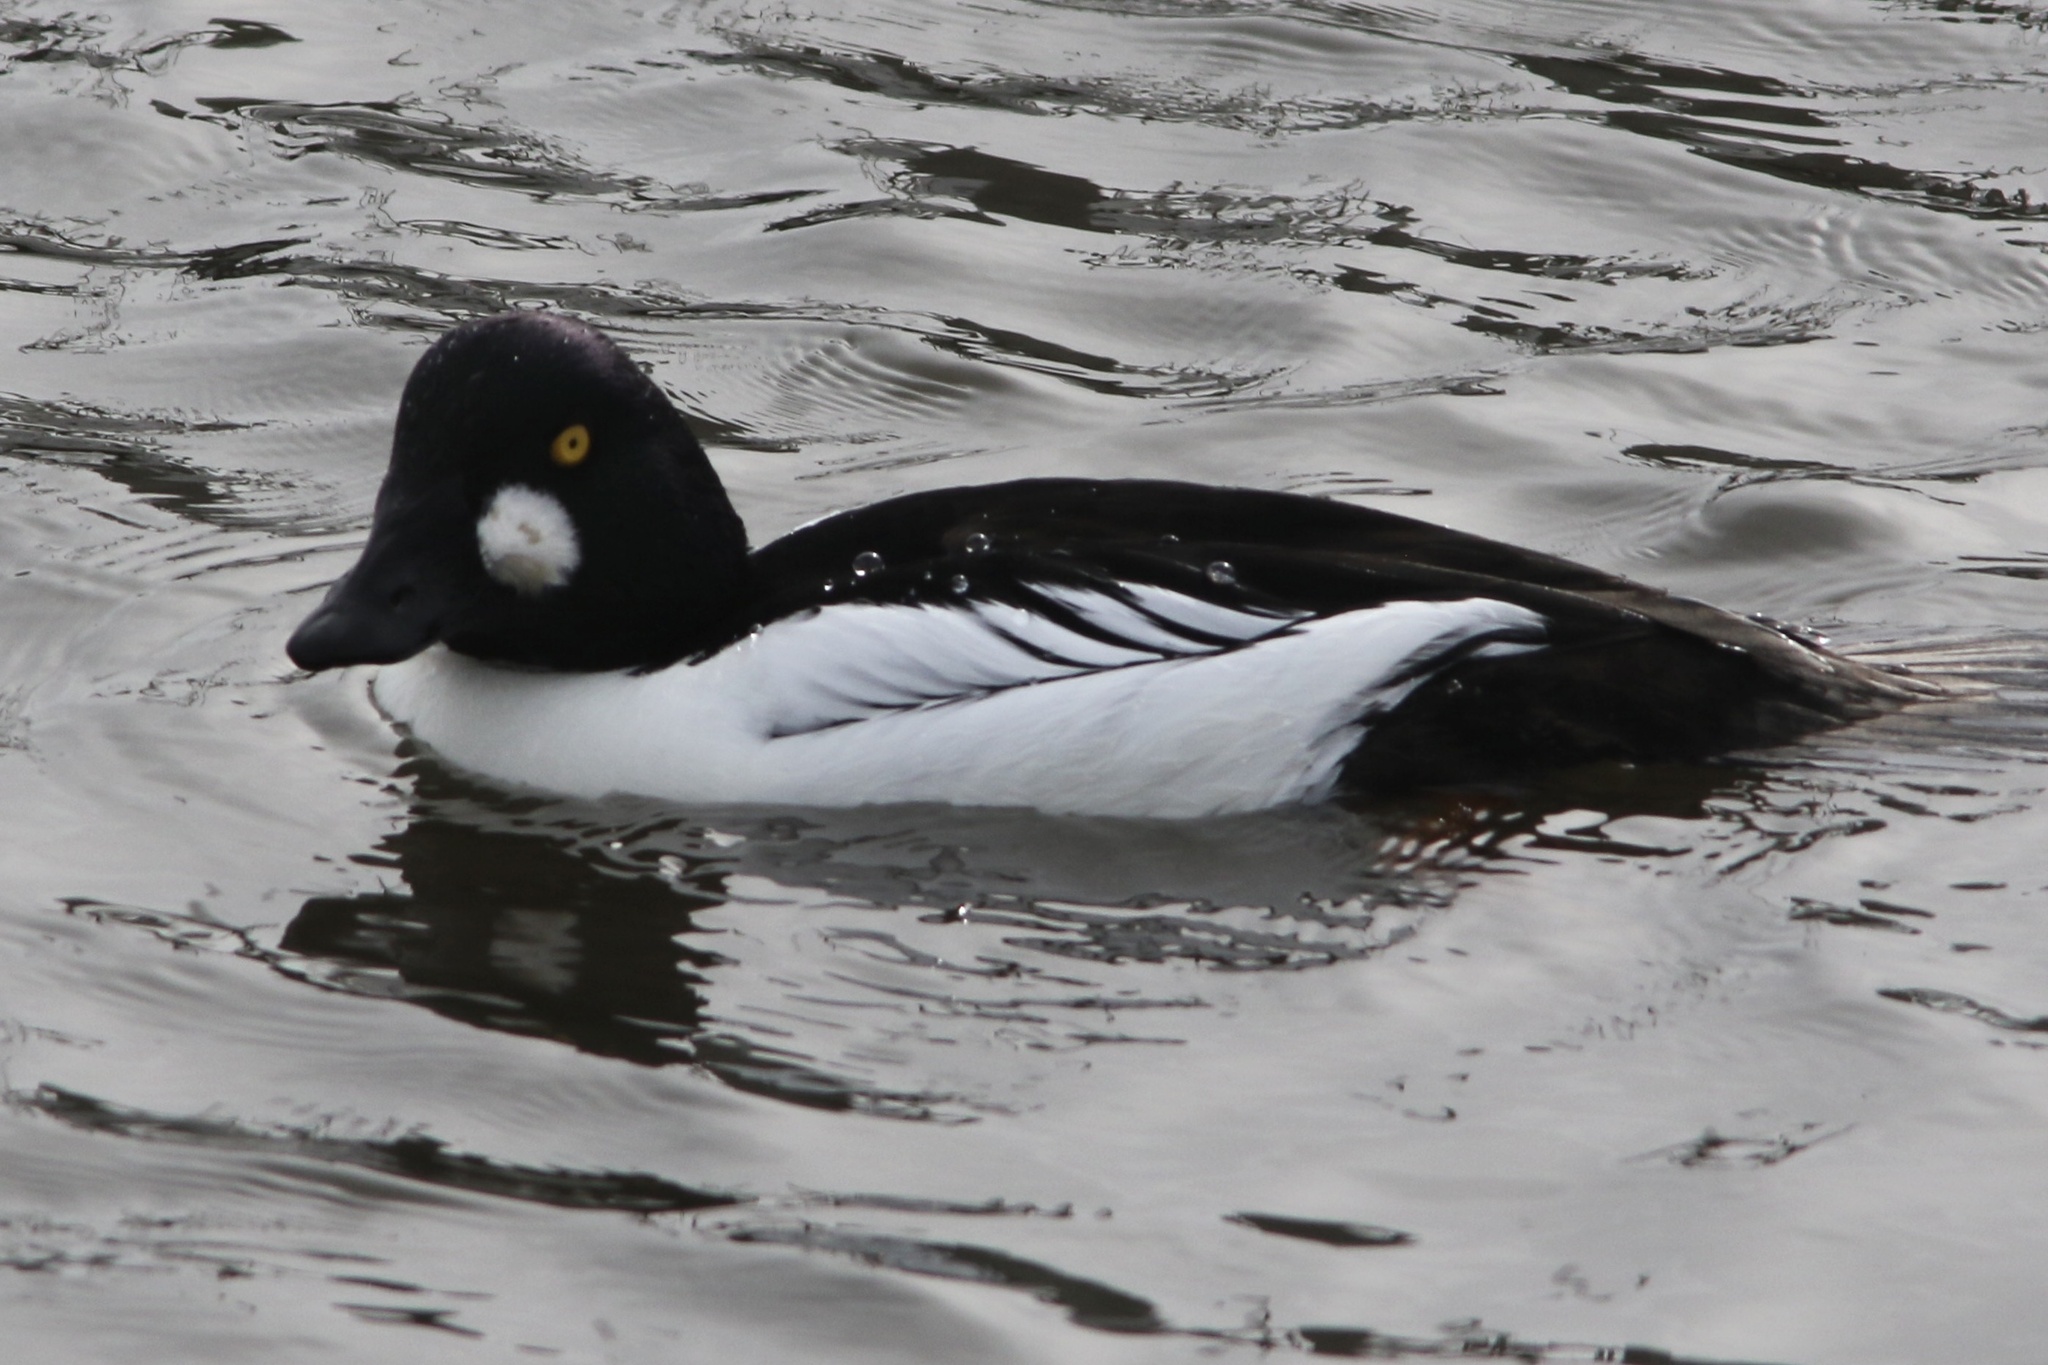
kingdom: Animalia
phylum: Chordata
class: Aves
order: Anseriformes
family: Anatidae
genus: Bucephala
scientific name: Bucephala clangula
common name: Common goldeneye
